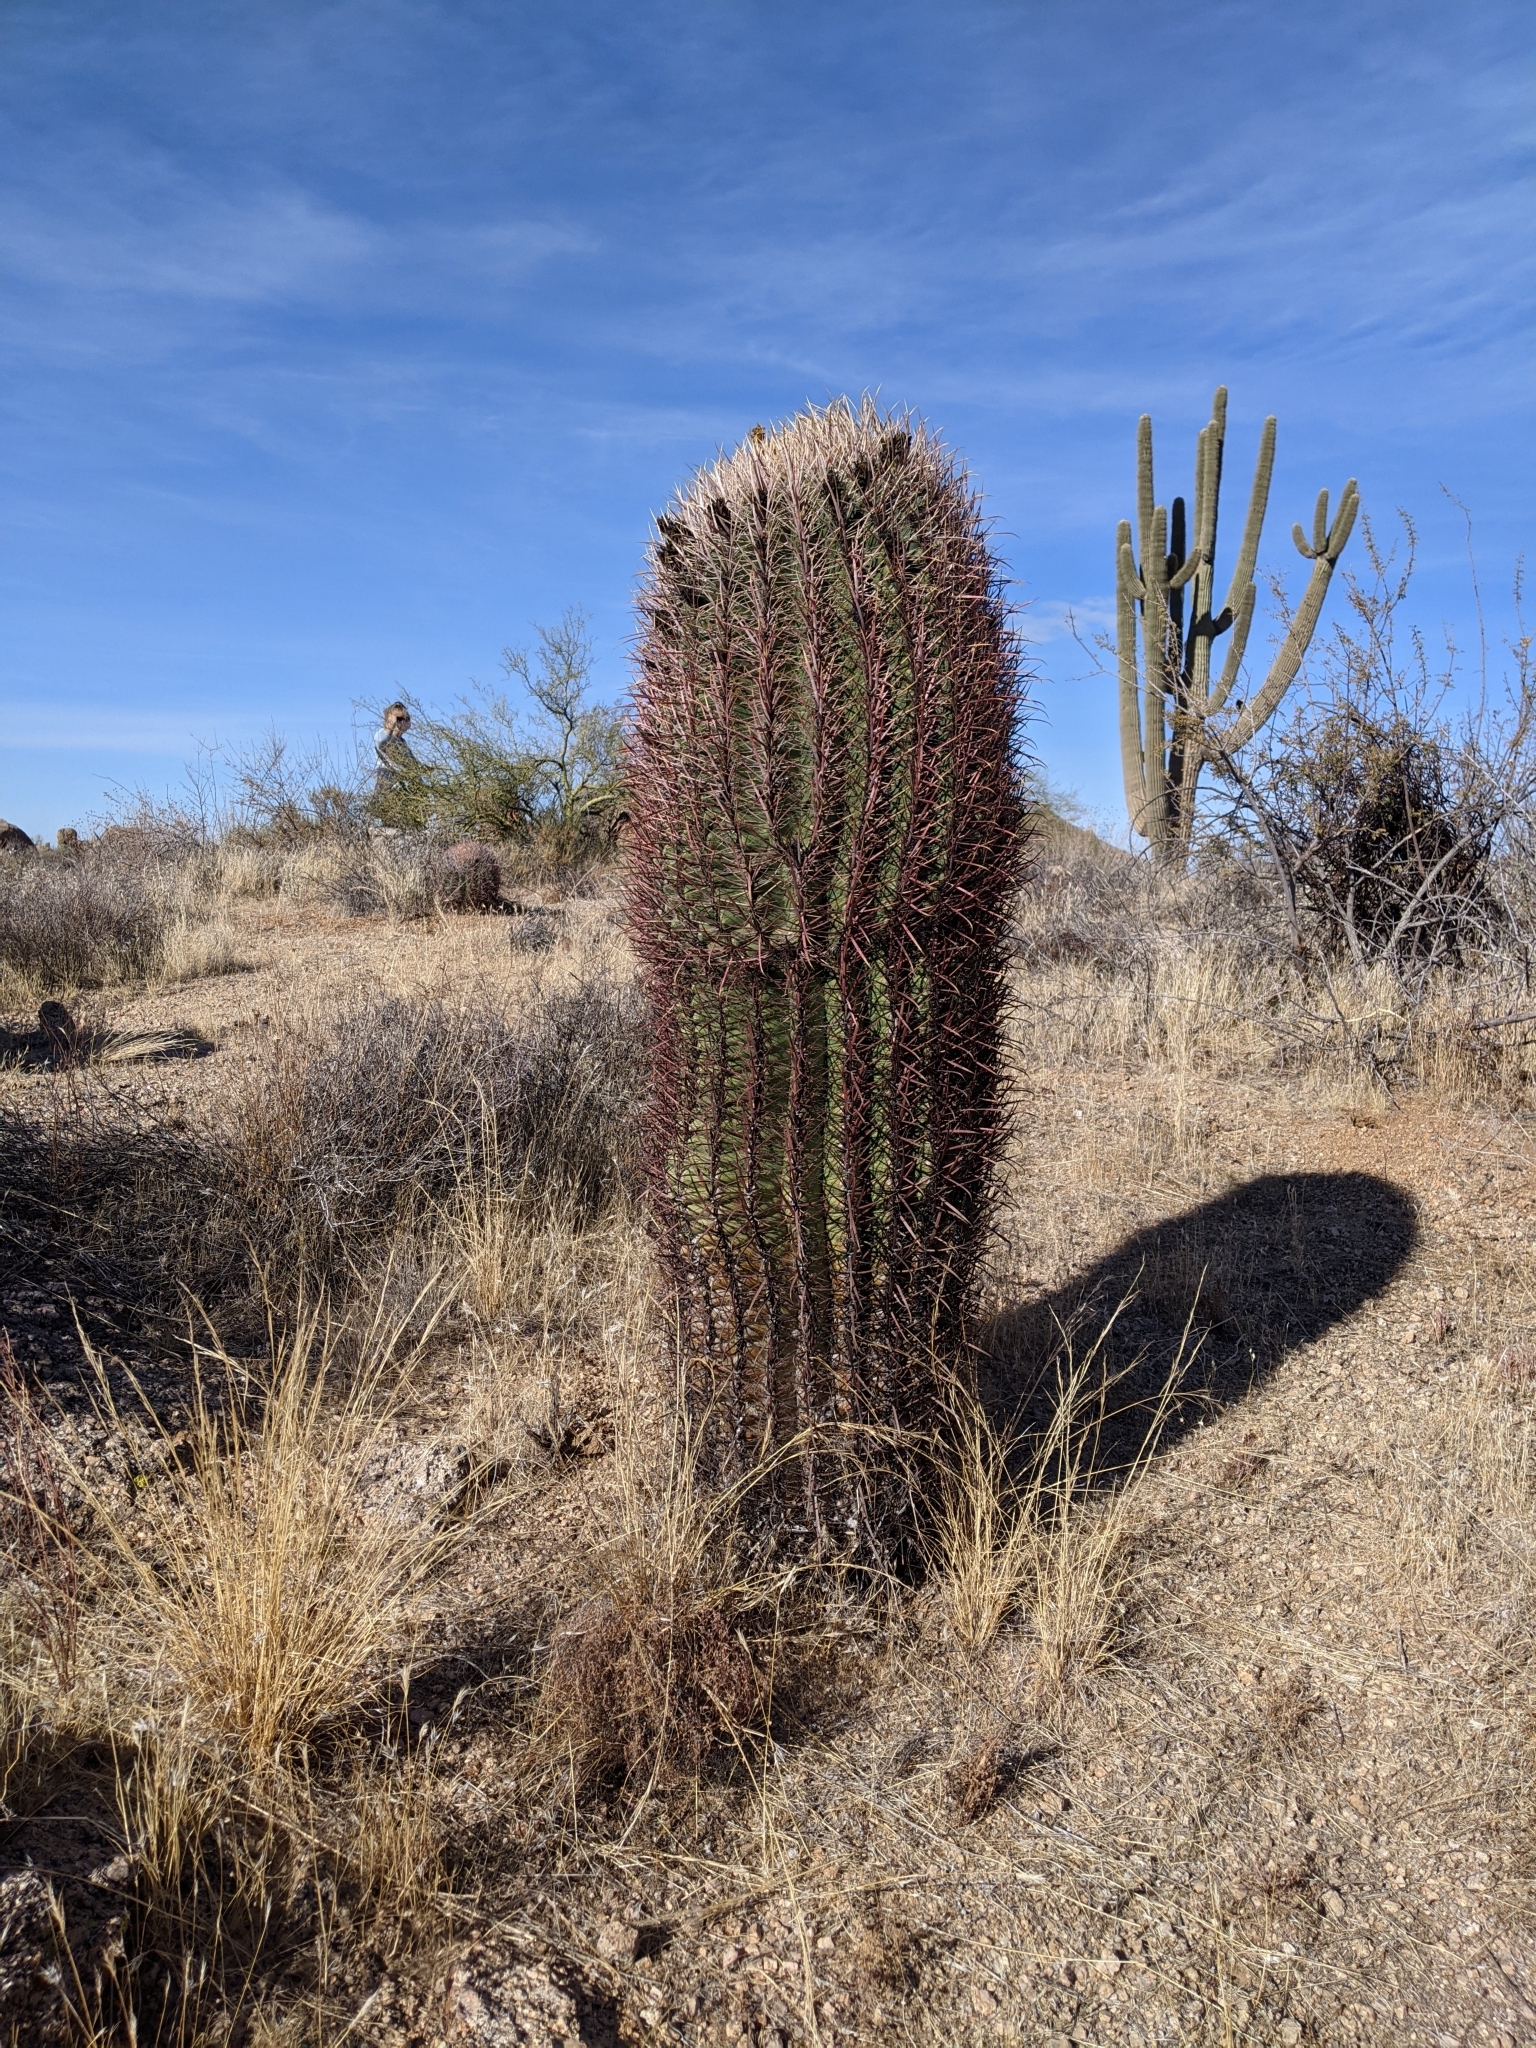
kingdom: Plantae
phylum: Tracheophyta
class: Magnoliopsida
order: Caryophyllales
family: Cactaceae
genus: Ferocactus
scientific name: Ferocactus cylindraceus
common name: California barrel cactus
